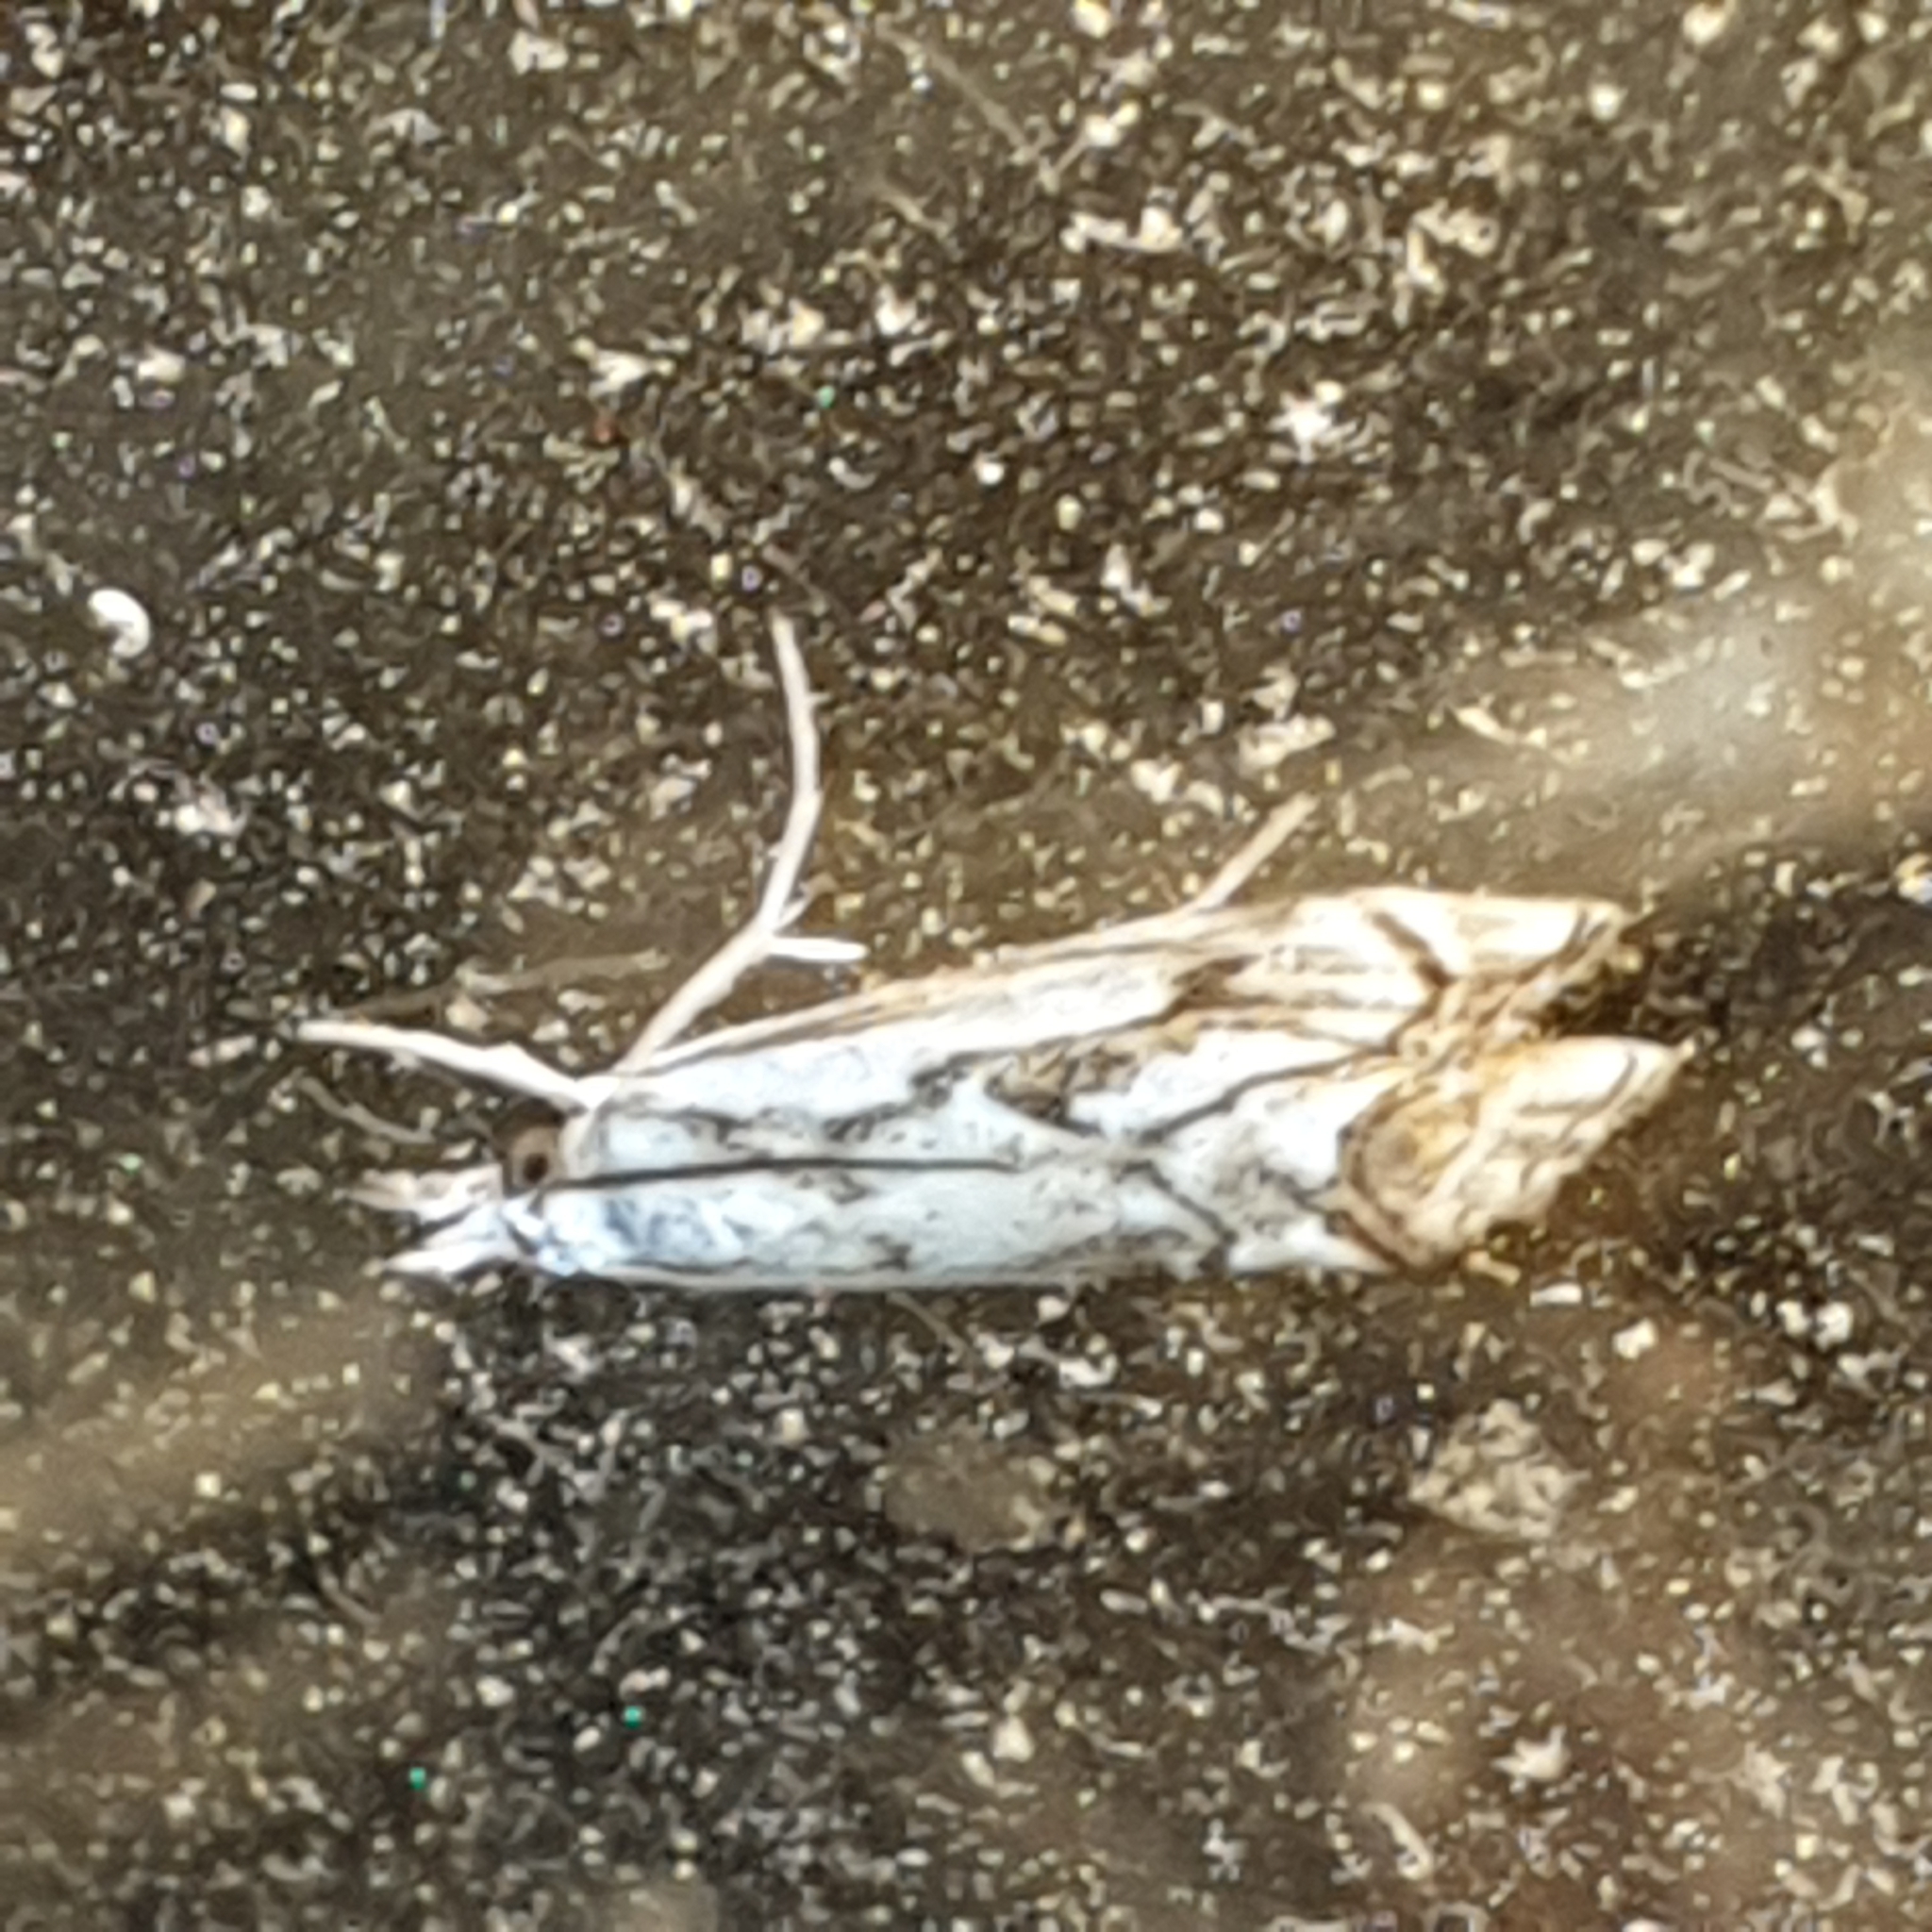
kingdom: Animalia
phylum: Arthropoda
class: Insecta
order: Lepidoptera
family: Crambidae
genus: Catoptria
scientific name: Catoptria falsella
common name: Chequered grass-veneer
